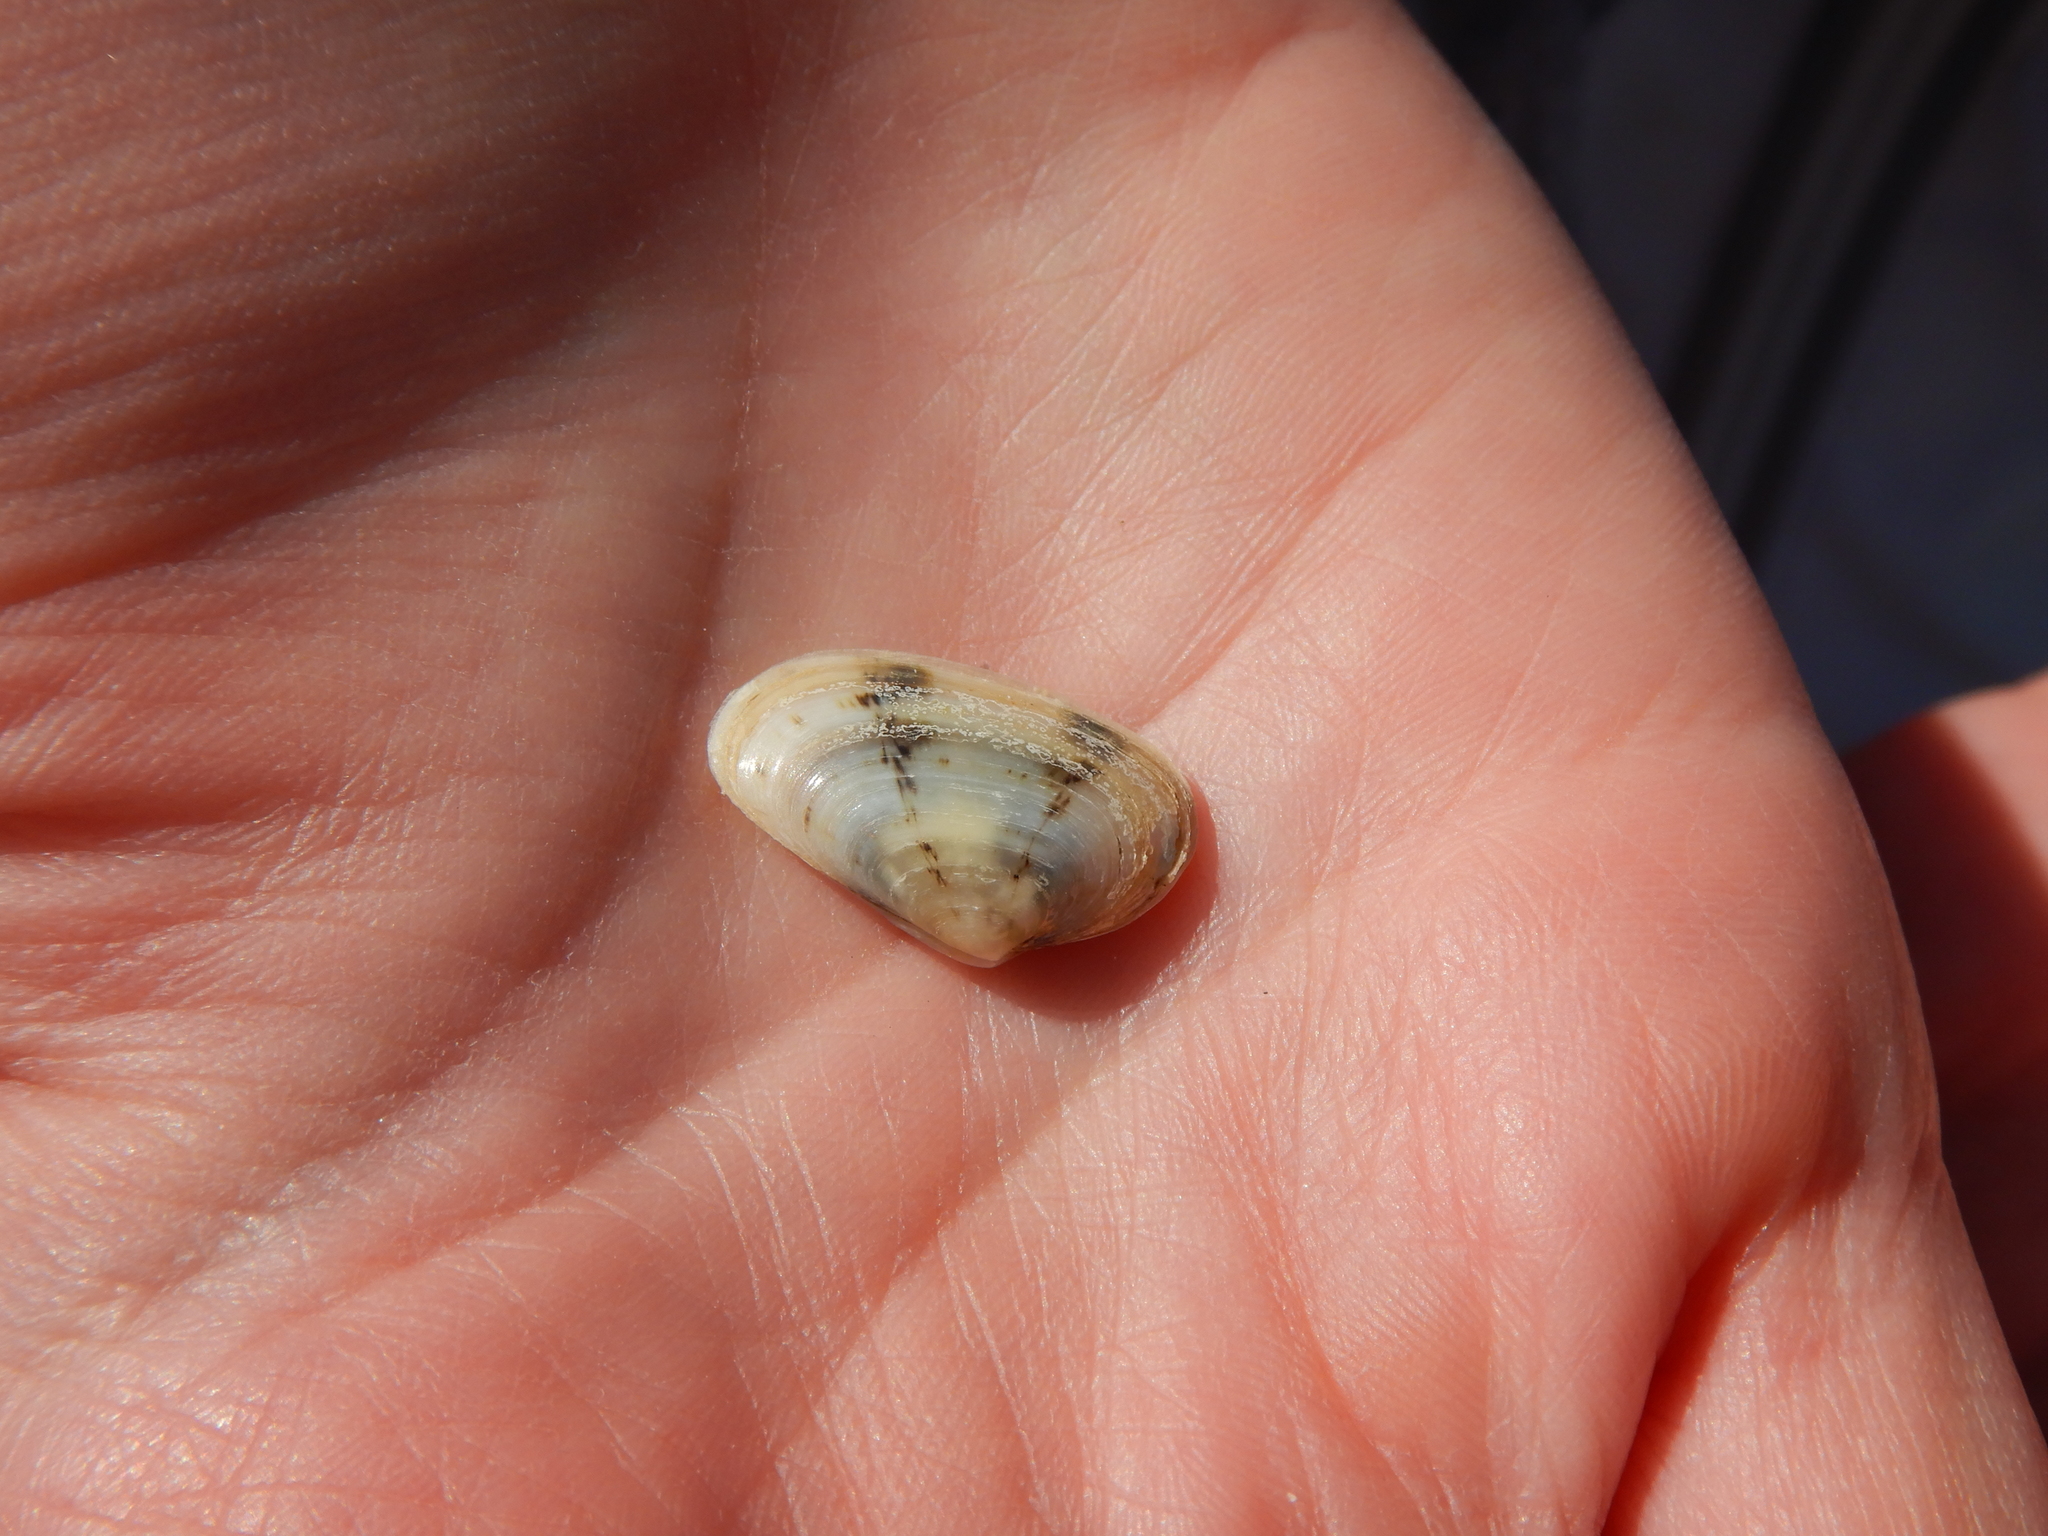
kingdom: Animalia
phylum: Mollusca
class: Bivalvia
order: Venerida
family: Mesodesmatidae
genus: Donacilla
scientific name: Donacilla cornea
